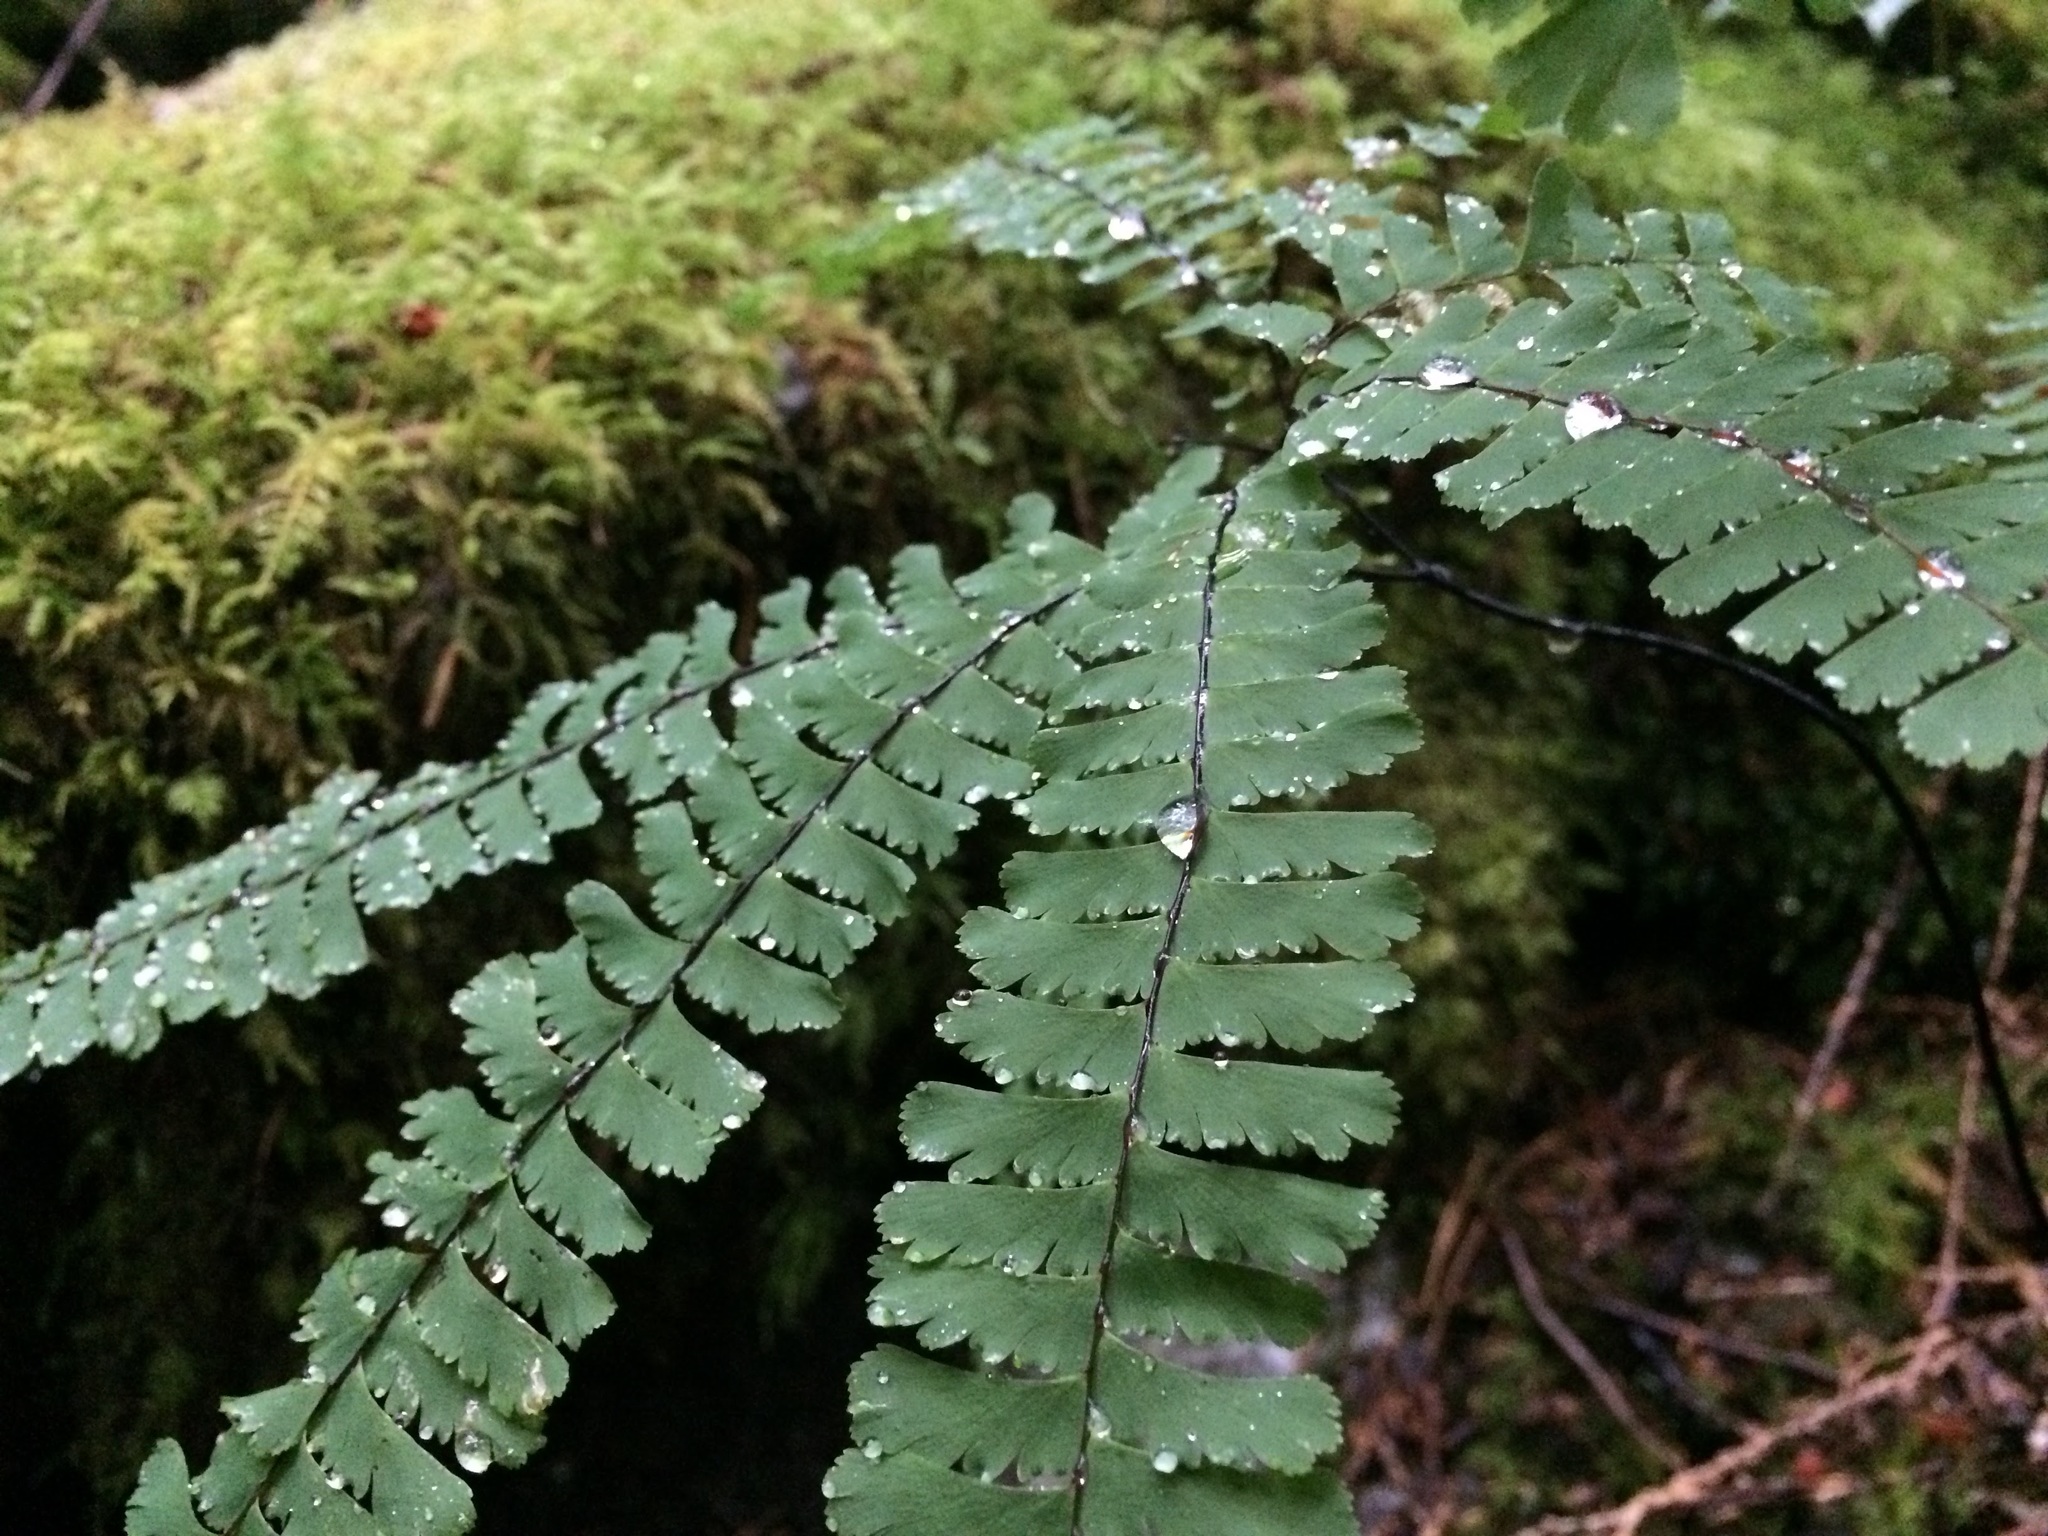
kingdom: Plantae
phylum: Tracheophyta
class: Polypodiopsida
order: Polypodiales
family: Pteridaceae
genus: Adiantum
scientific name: Adiantum aleuticum
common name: Aleutian maidenhair fern
